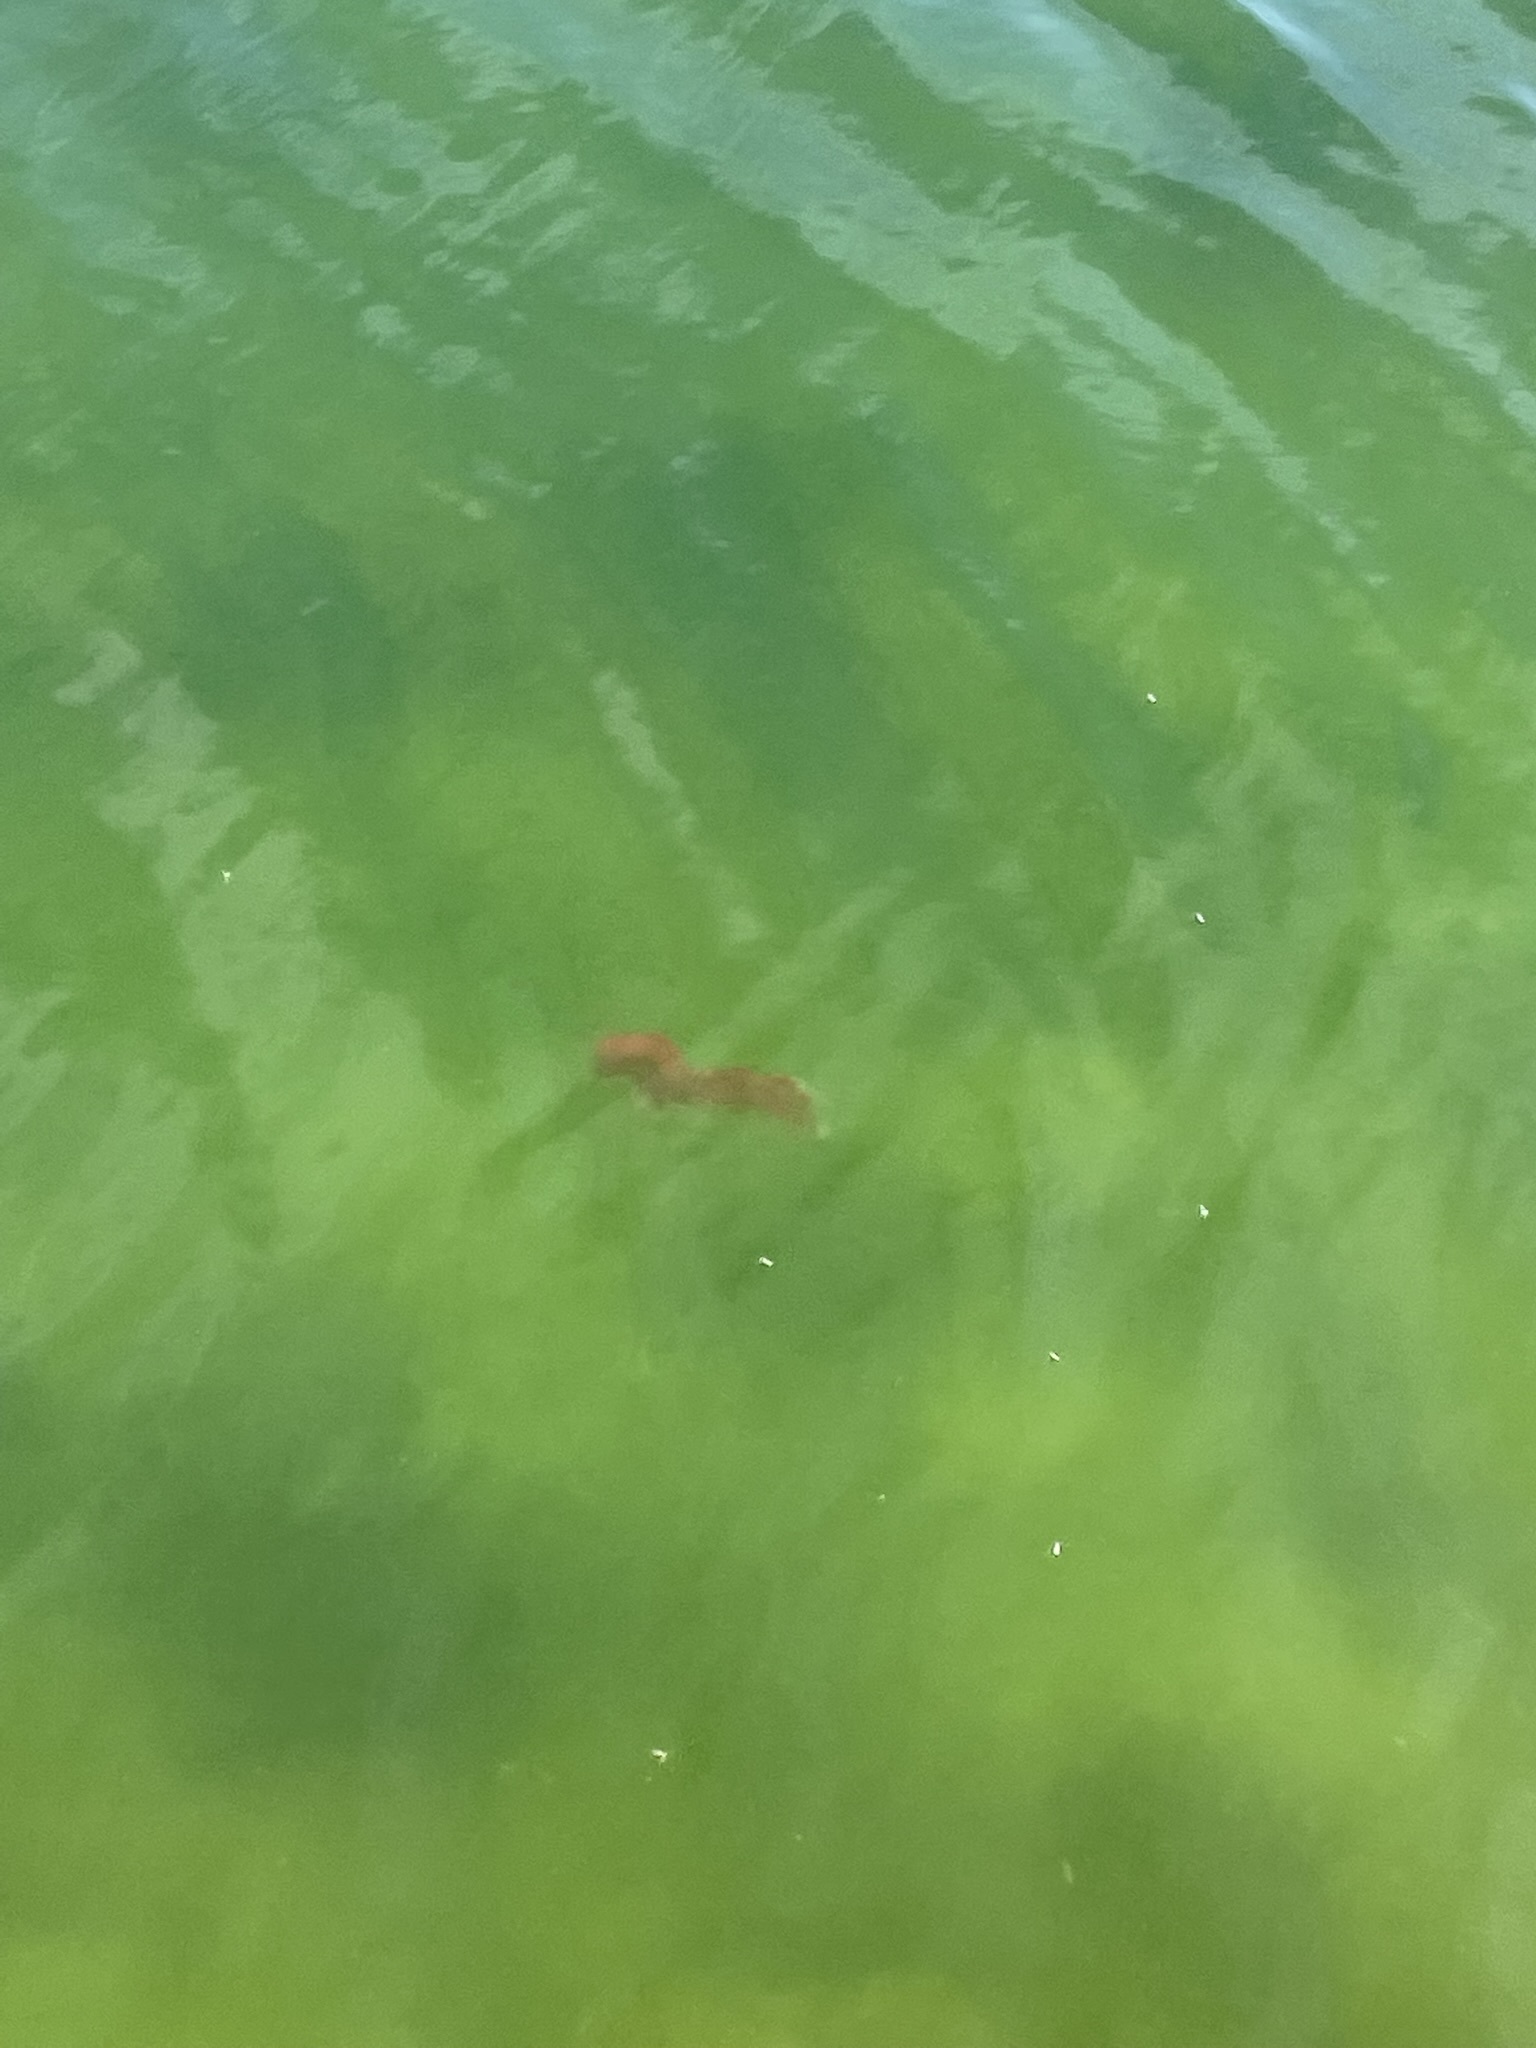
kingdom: Animalia
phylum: Chordata
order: Cypriniformes
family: Cyprinidae
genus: Carassius
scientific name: Carassius auratus
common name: Goldfish
